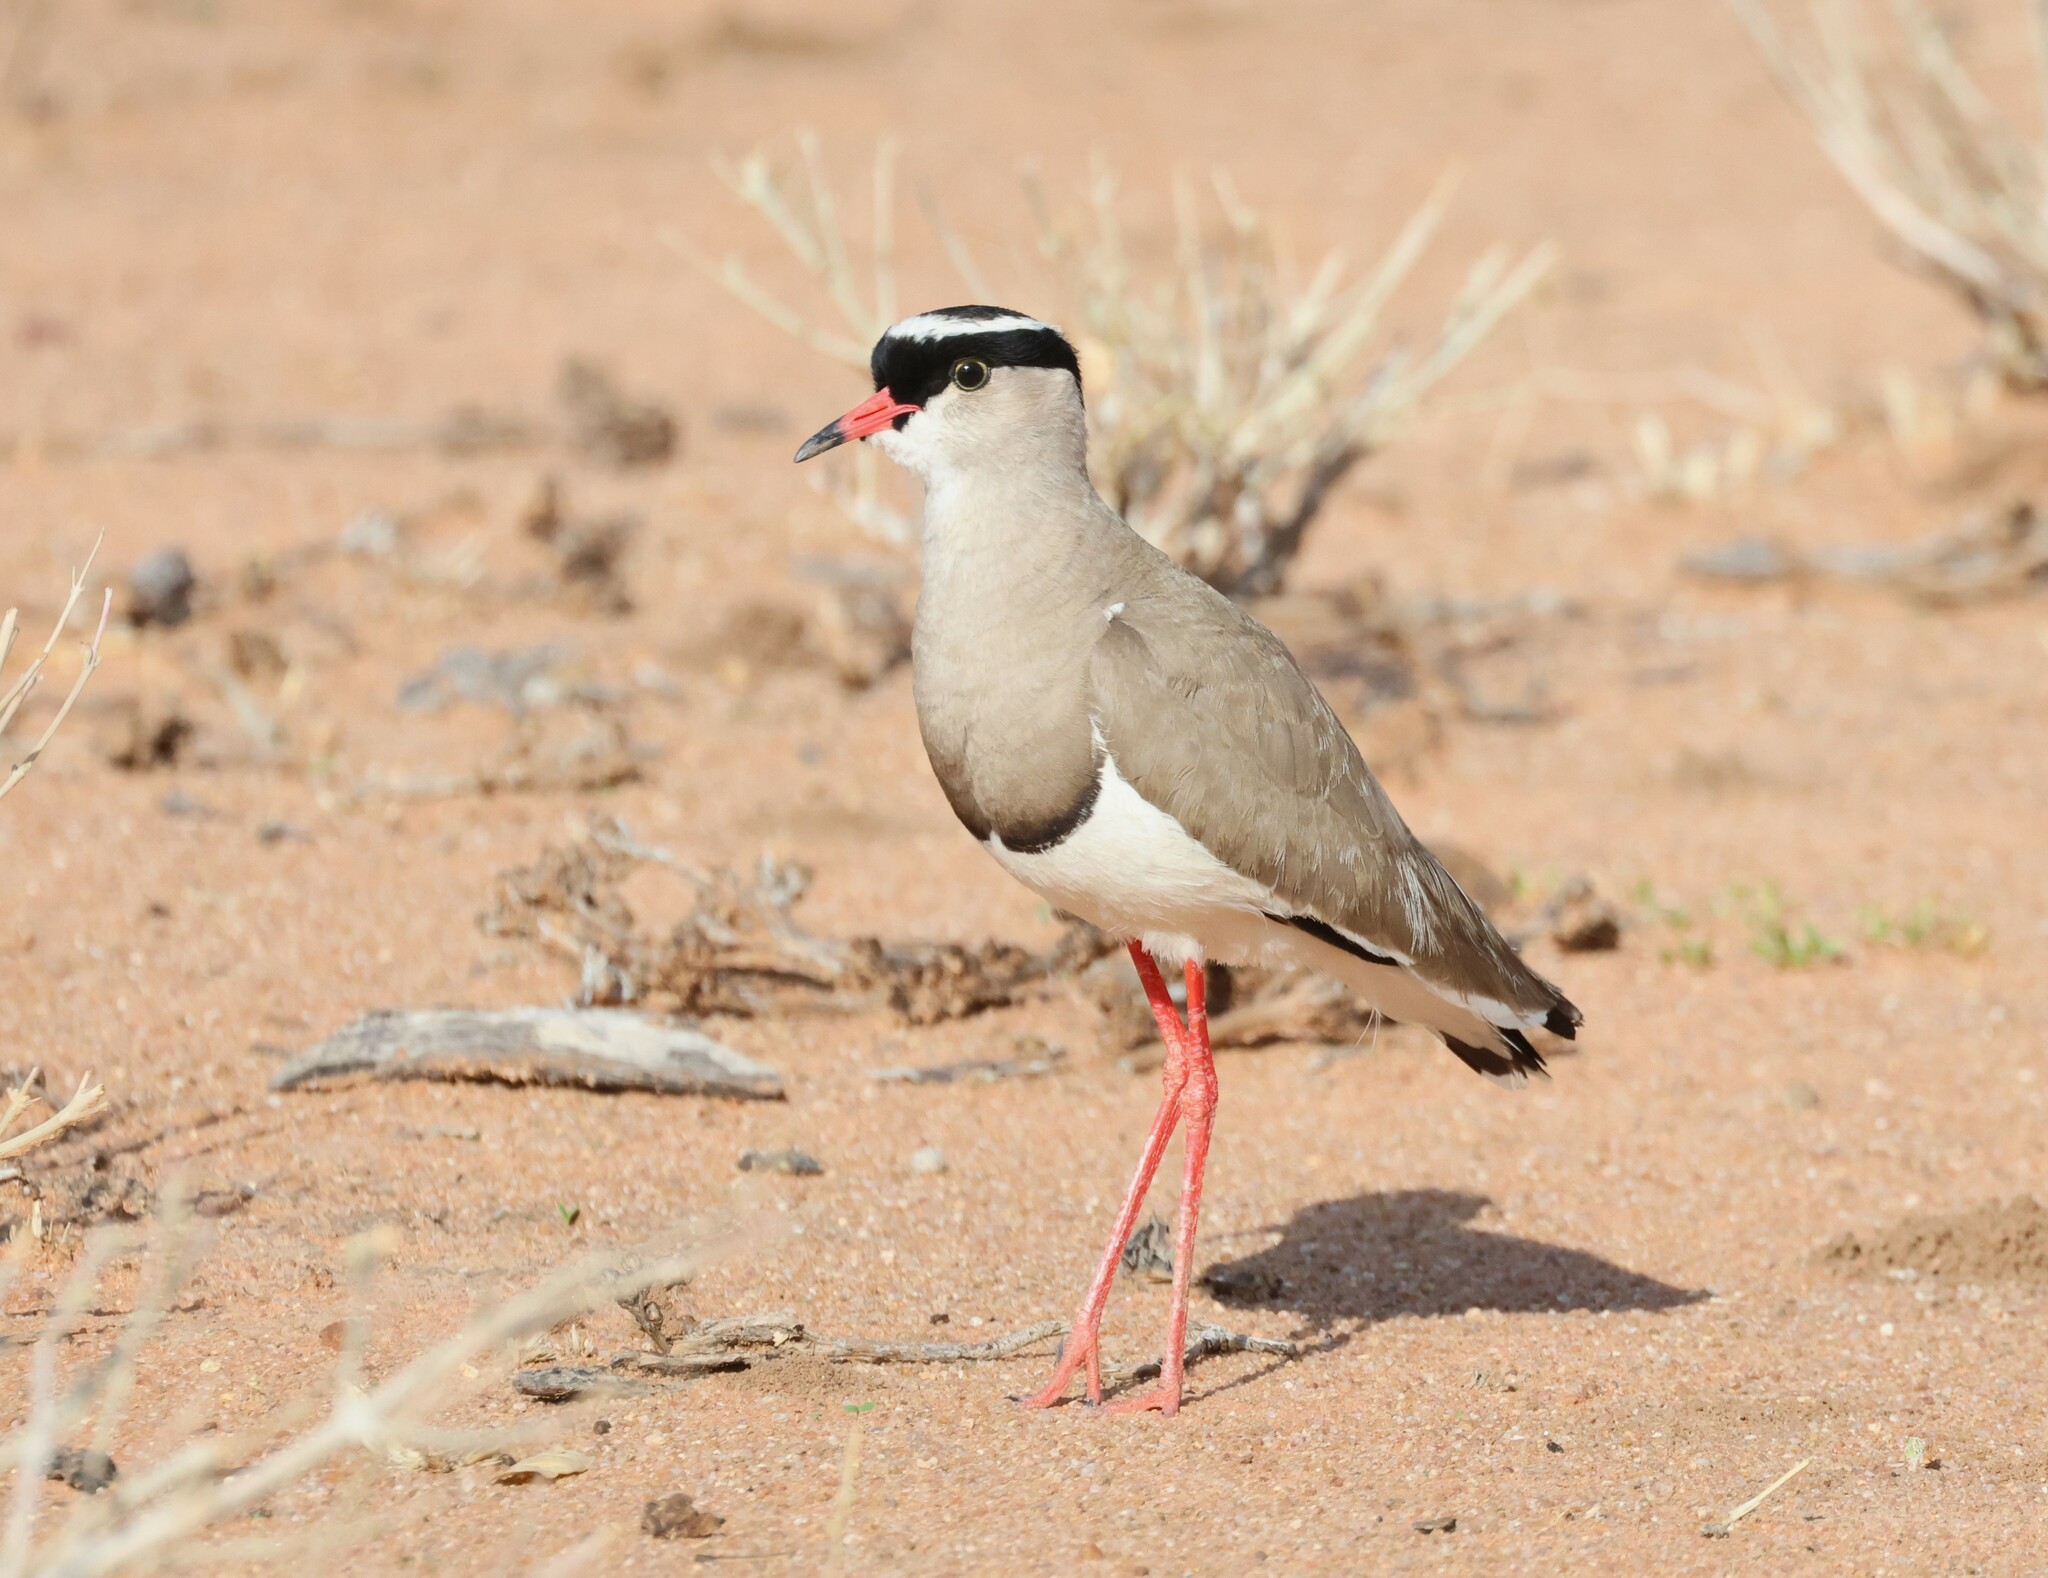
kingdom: Animalia
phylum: Chordata
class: Aves
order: Charadriiformes
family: Charadriidae
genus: Vanellus
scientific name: Vanellus coronatus
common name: Crowned lapwing
